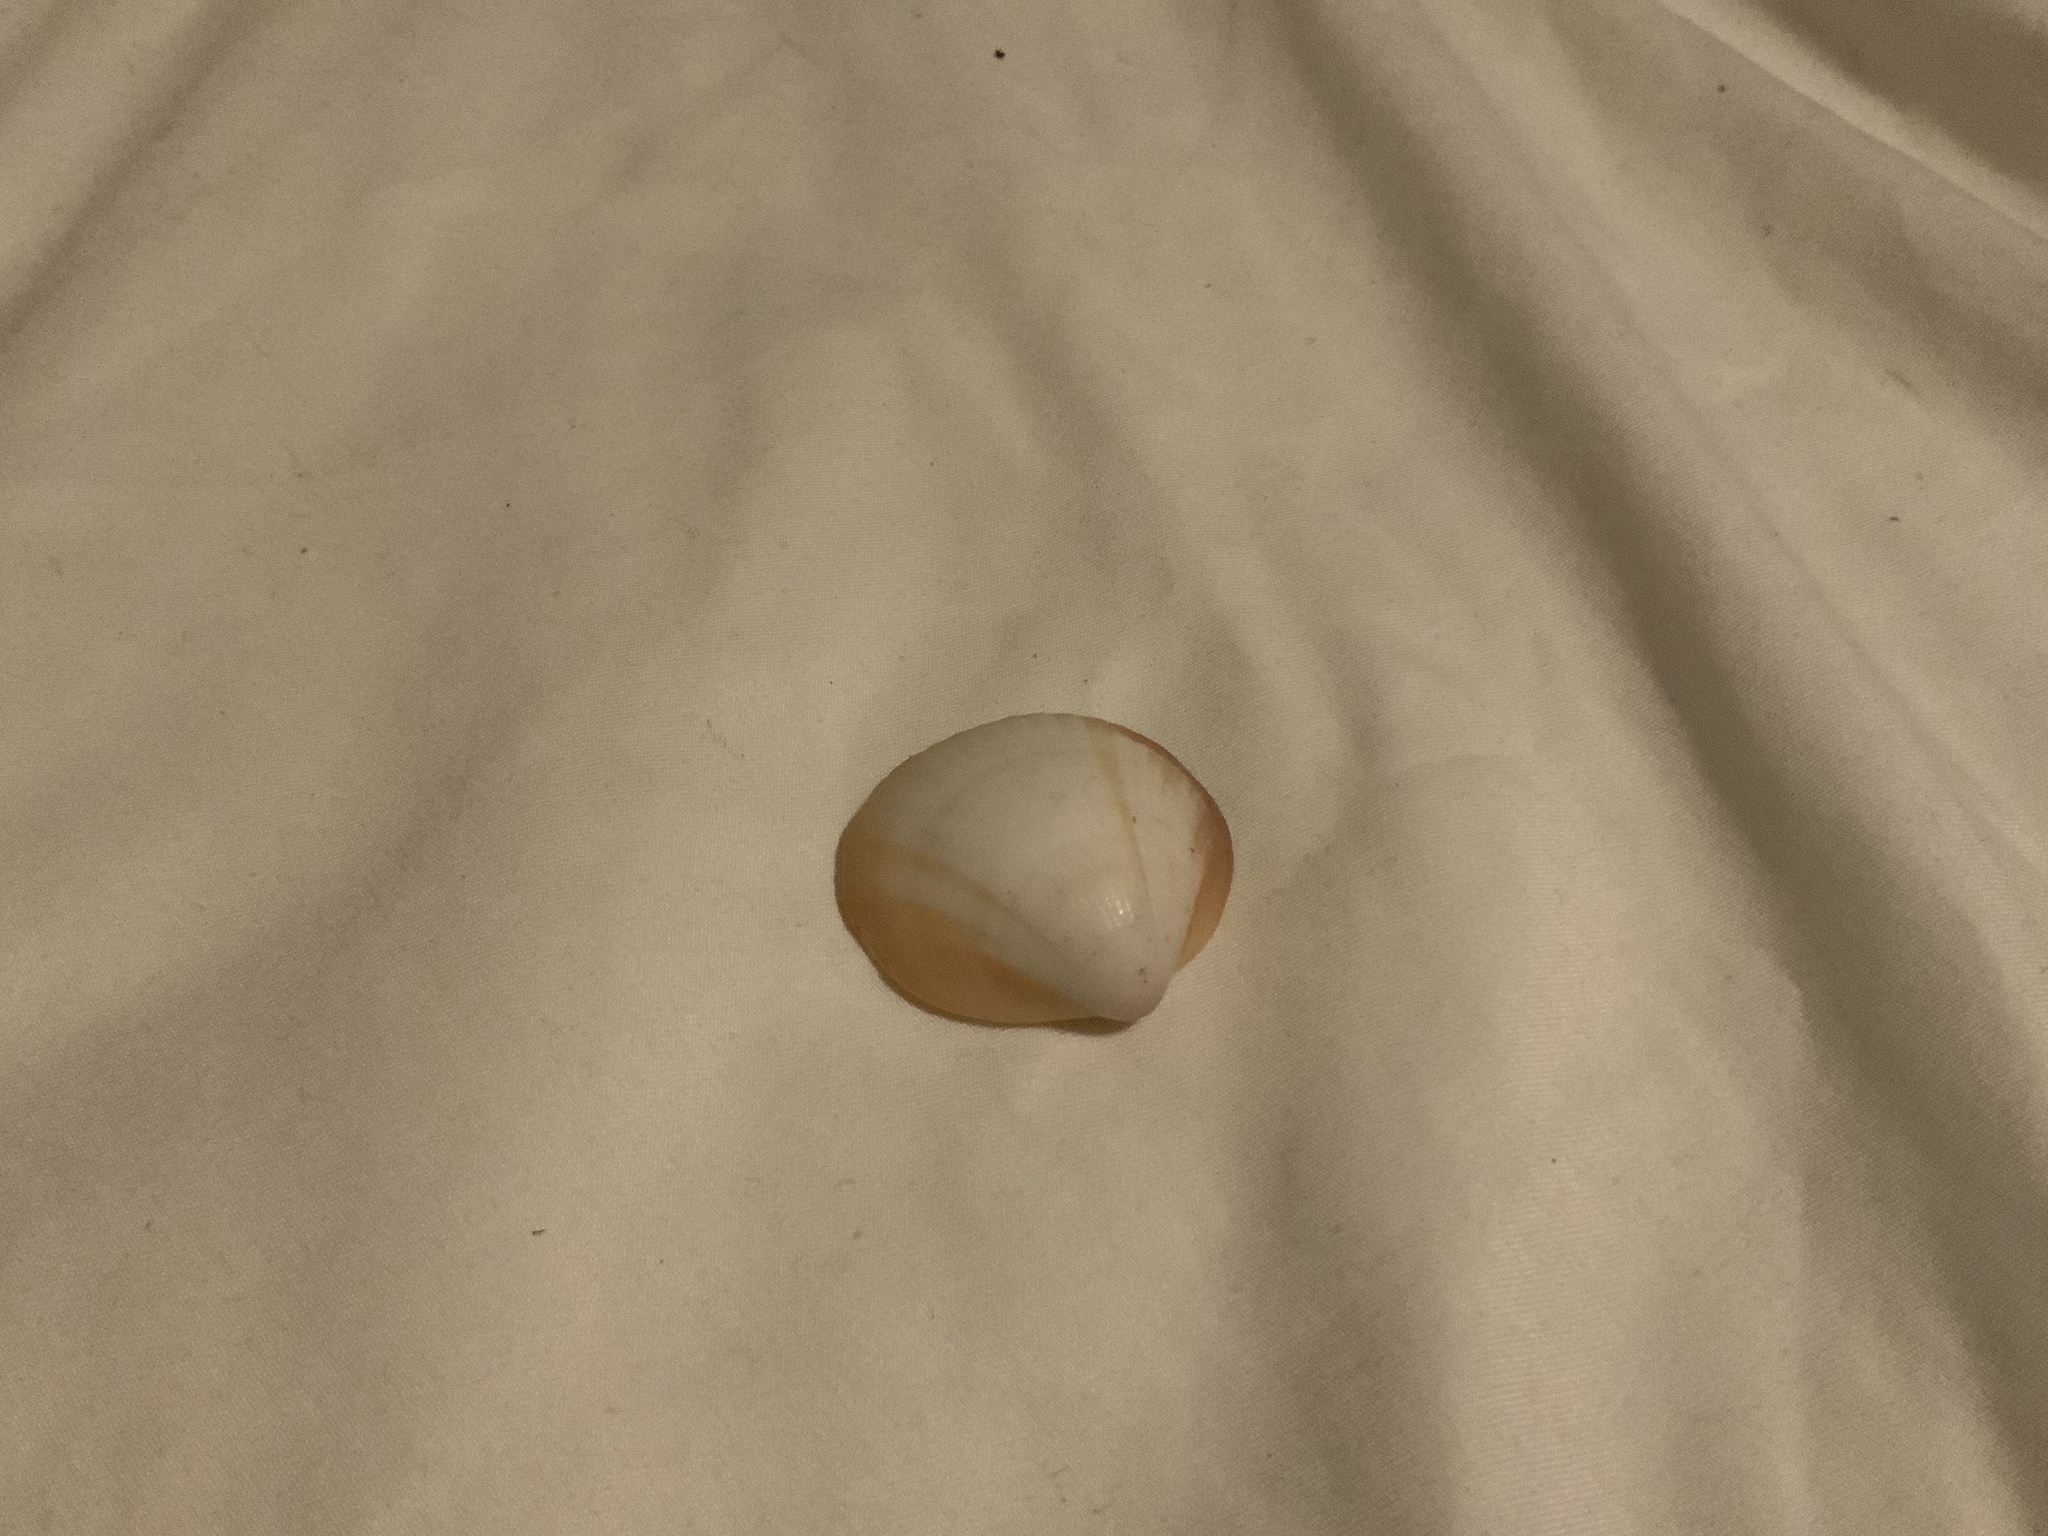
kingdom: Animalia
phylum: Mollusca
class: Bivalvia
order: Arcida
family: Glycymerididae
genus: Glycymeris
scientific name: Glycymeris spectralis
